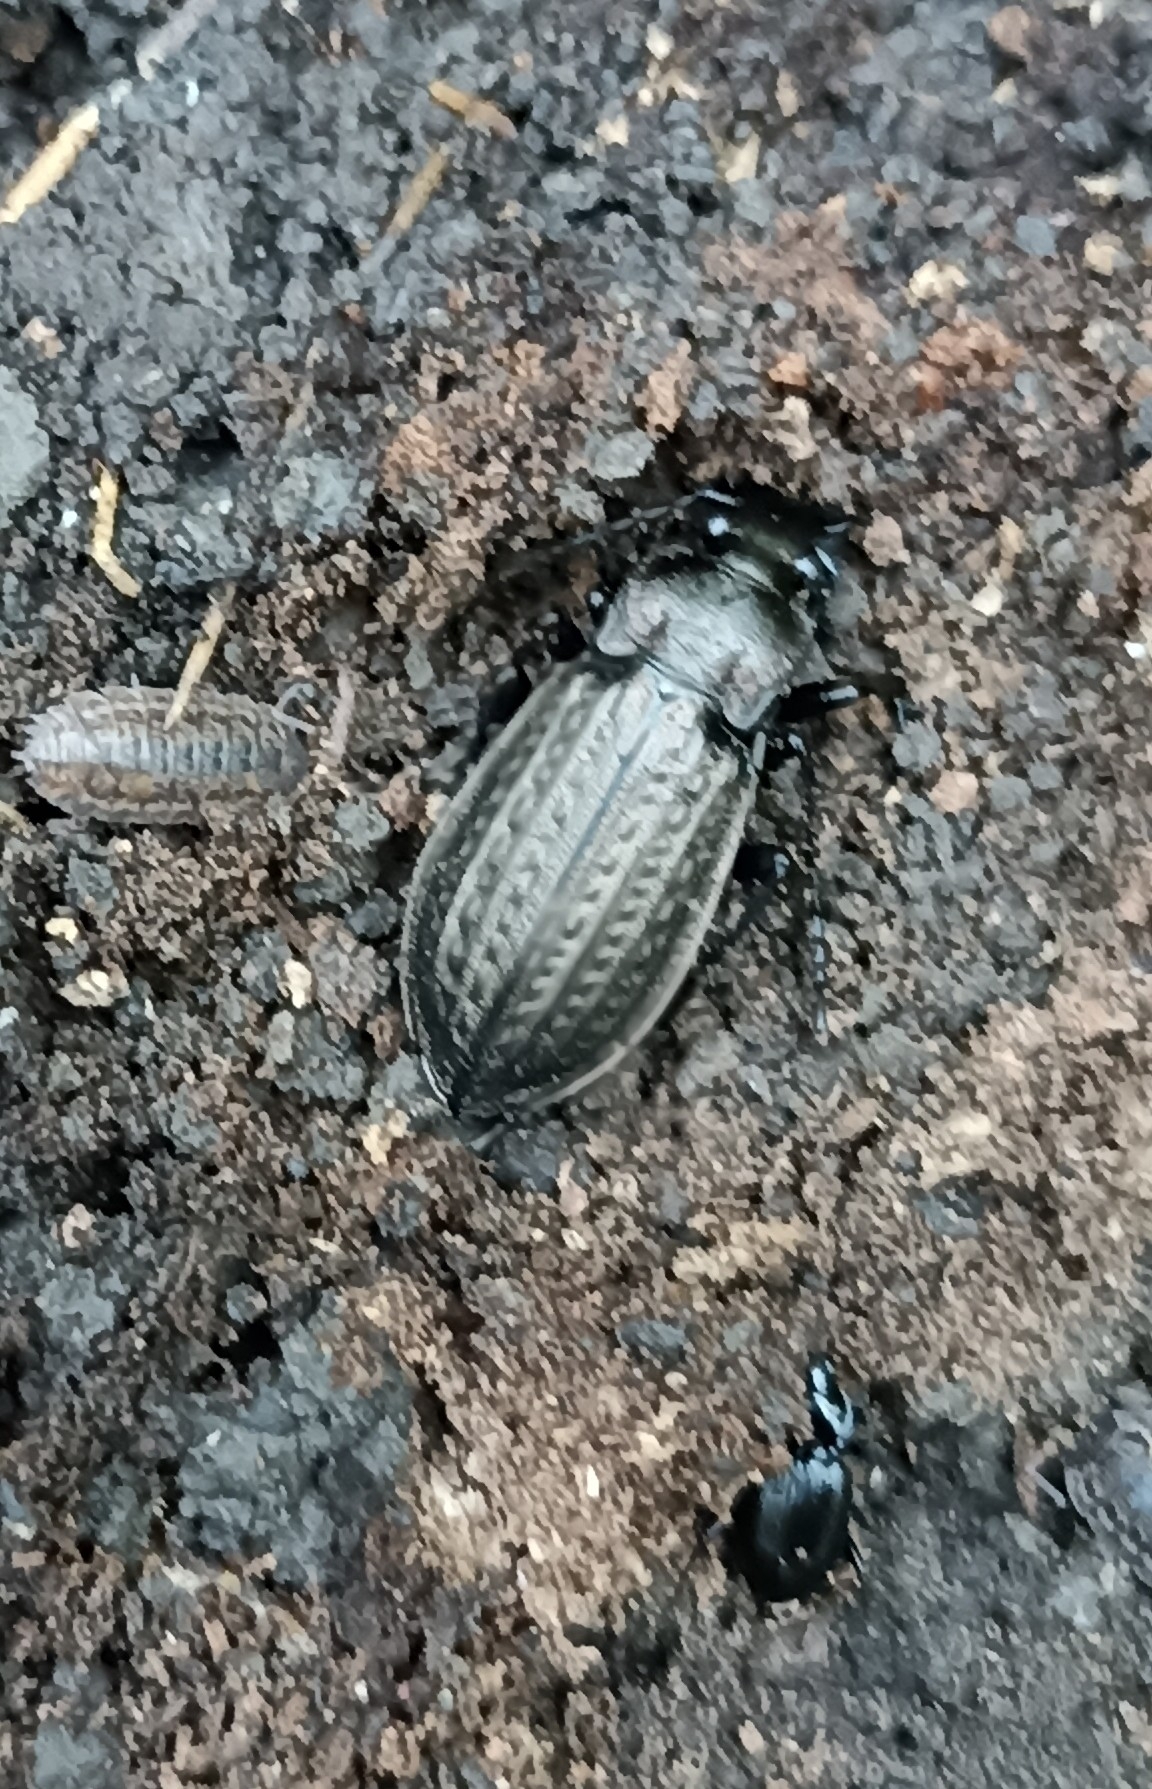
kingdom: Animalia
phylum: Arthropoda
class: Insecta
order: Coleoptera
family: Carabidae
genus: Carabus
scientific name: Carabus granulatus
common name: Granulate ground beetle
